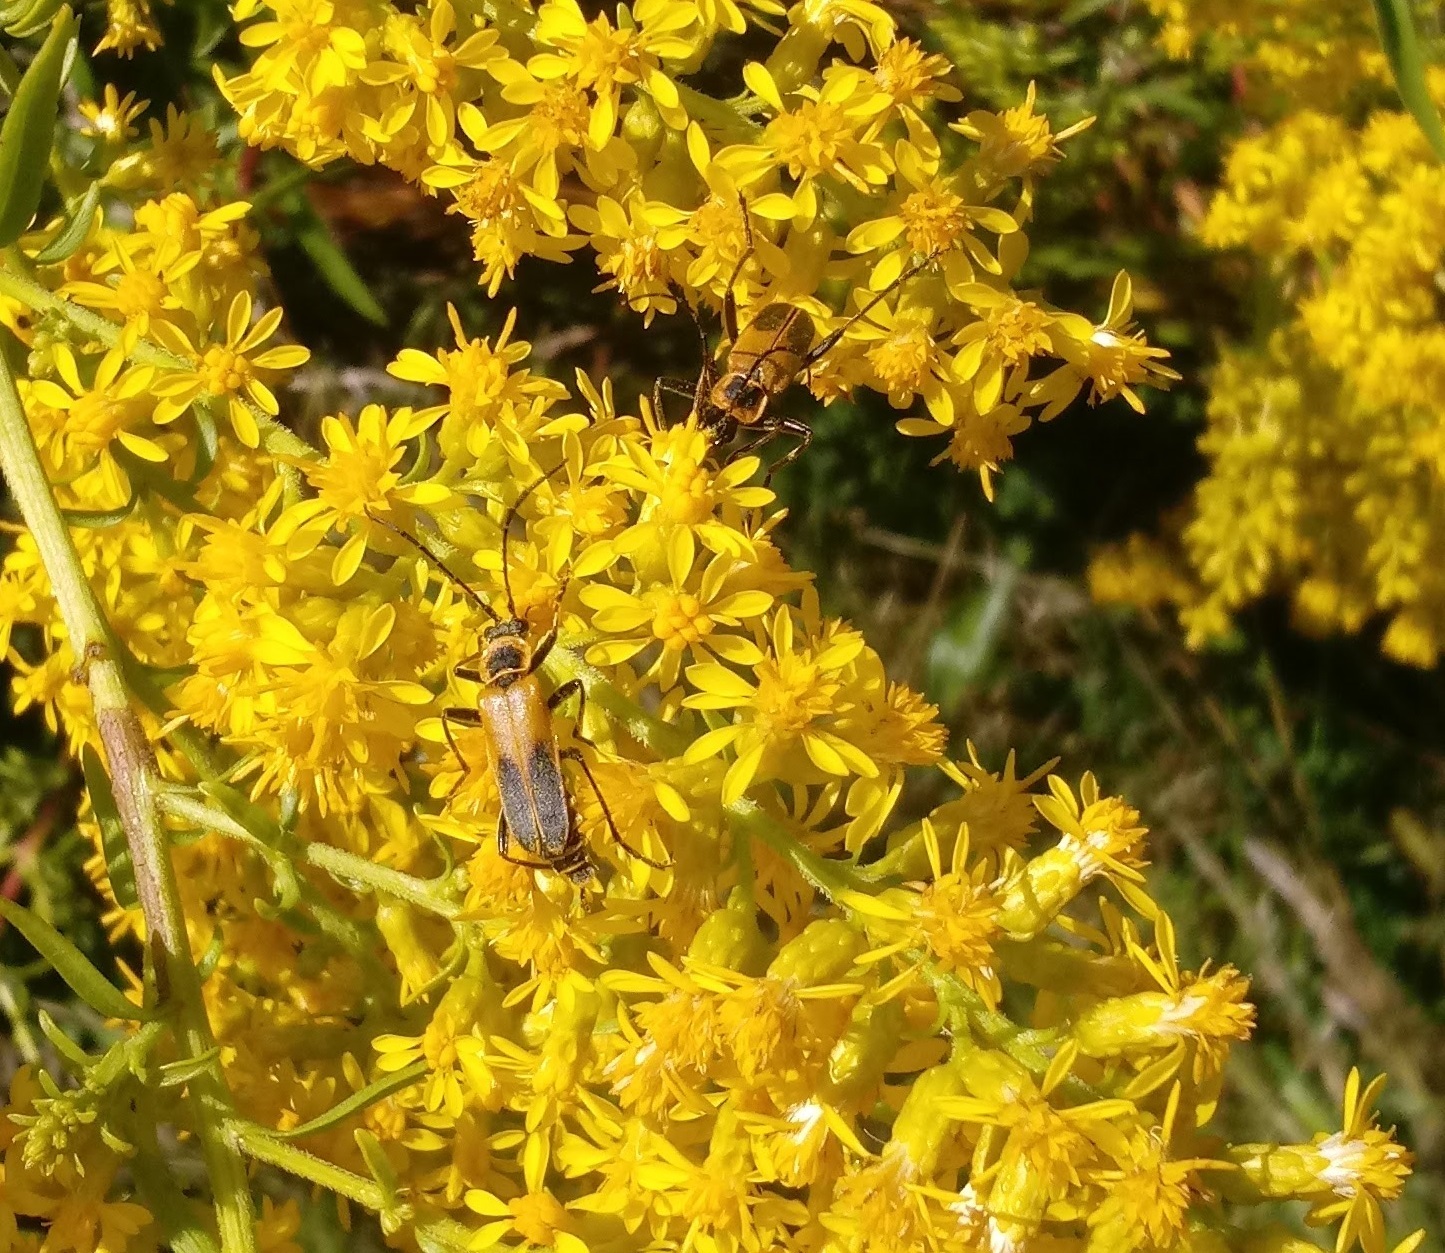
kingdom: Animalia
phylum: Arthropoda
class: Insecta
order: Coleoptera
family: Cantharidae
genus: Chauliognathus
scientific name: Chauliognathus pensylvanicus
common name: Goldenrod soldier beetle
